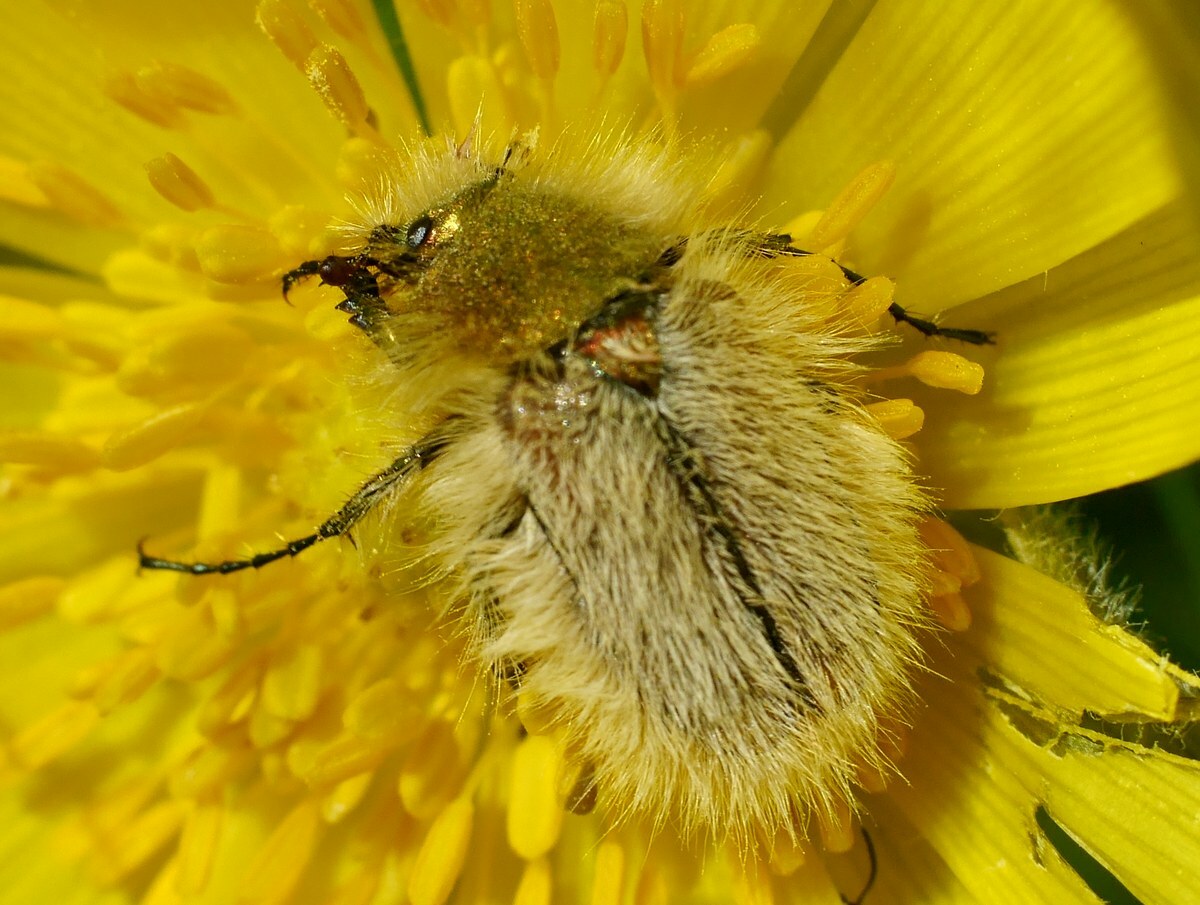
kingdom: Animalia
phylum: Arthropoda
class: Insecta
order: Coleoptera
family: Glaphyridae
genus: Pygopleurus
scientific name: Pygopleurus vulpes
